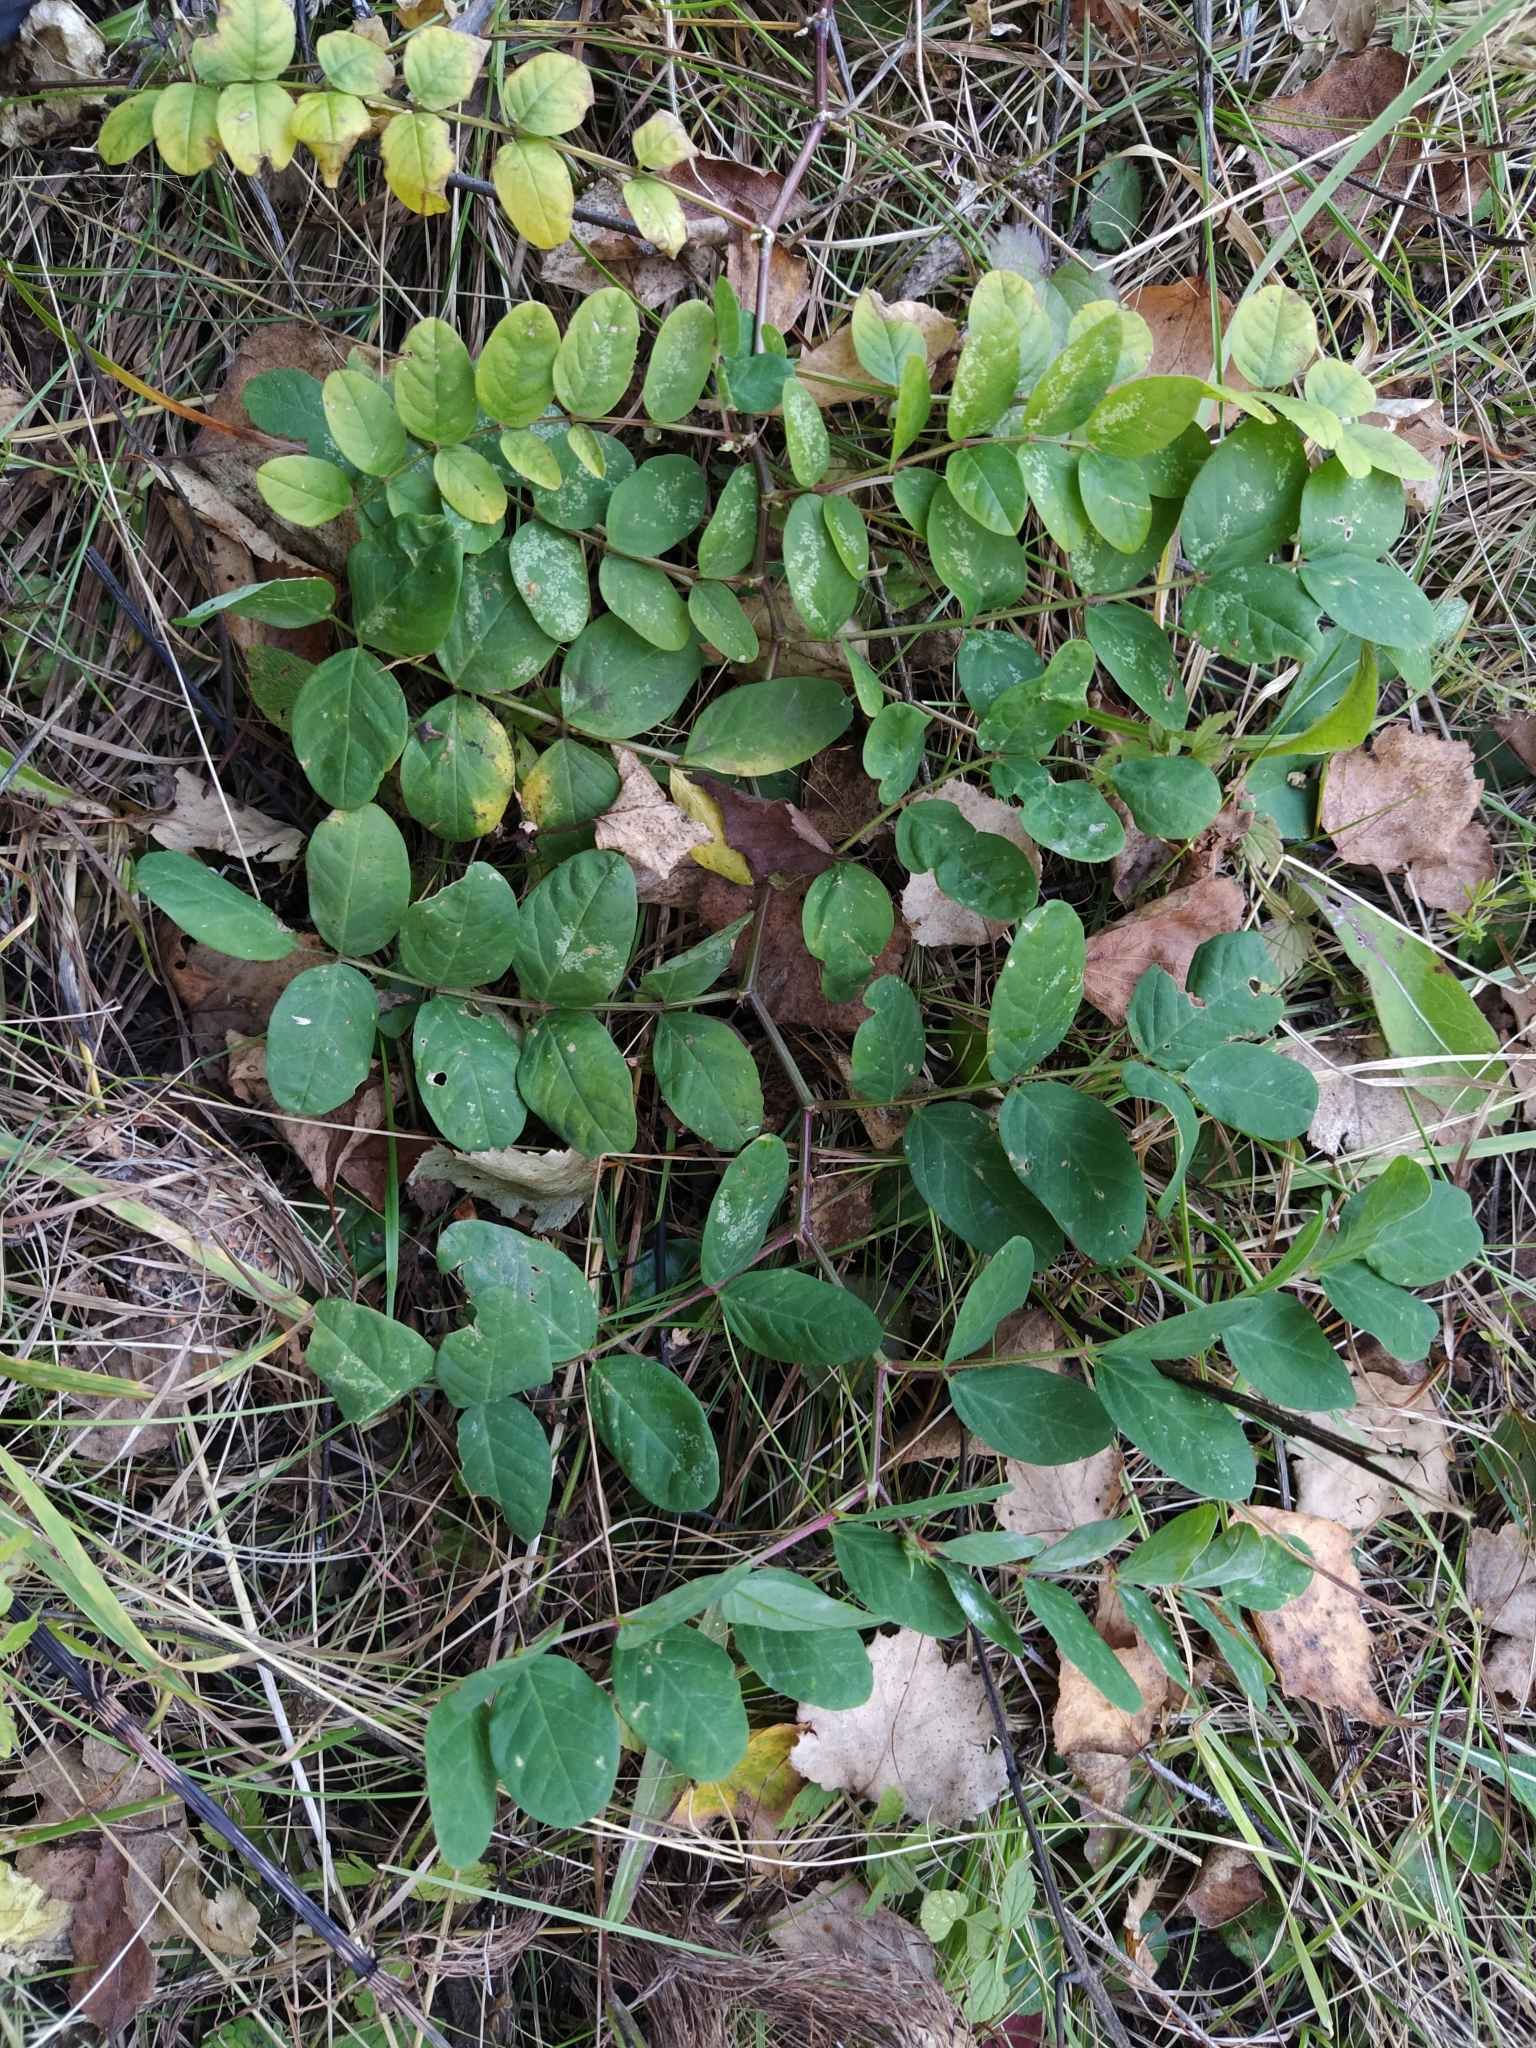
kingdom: Plantae
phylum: Tracheophyta
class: Magnoliopsida
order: Fabales
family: Fabaceae
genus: Astragalus
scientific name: Astragalus glycyphyllos
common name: Wild liquorice
